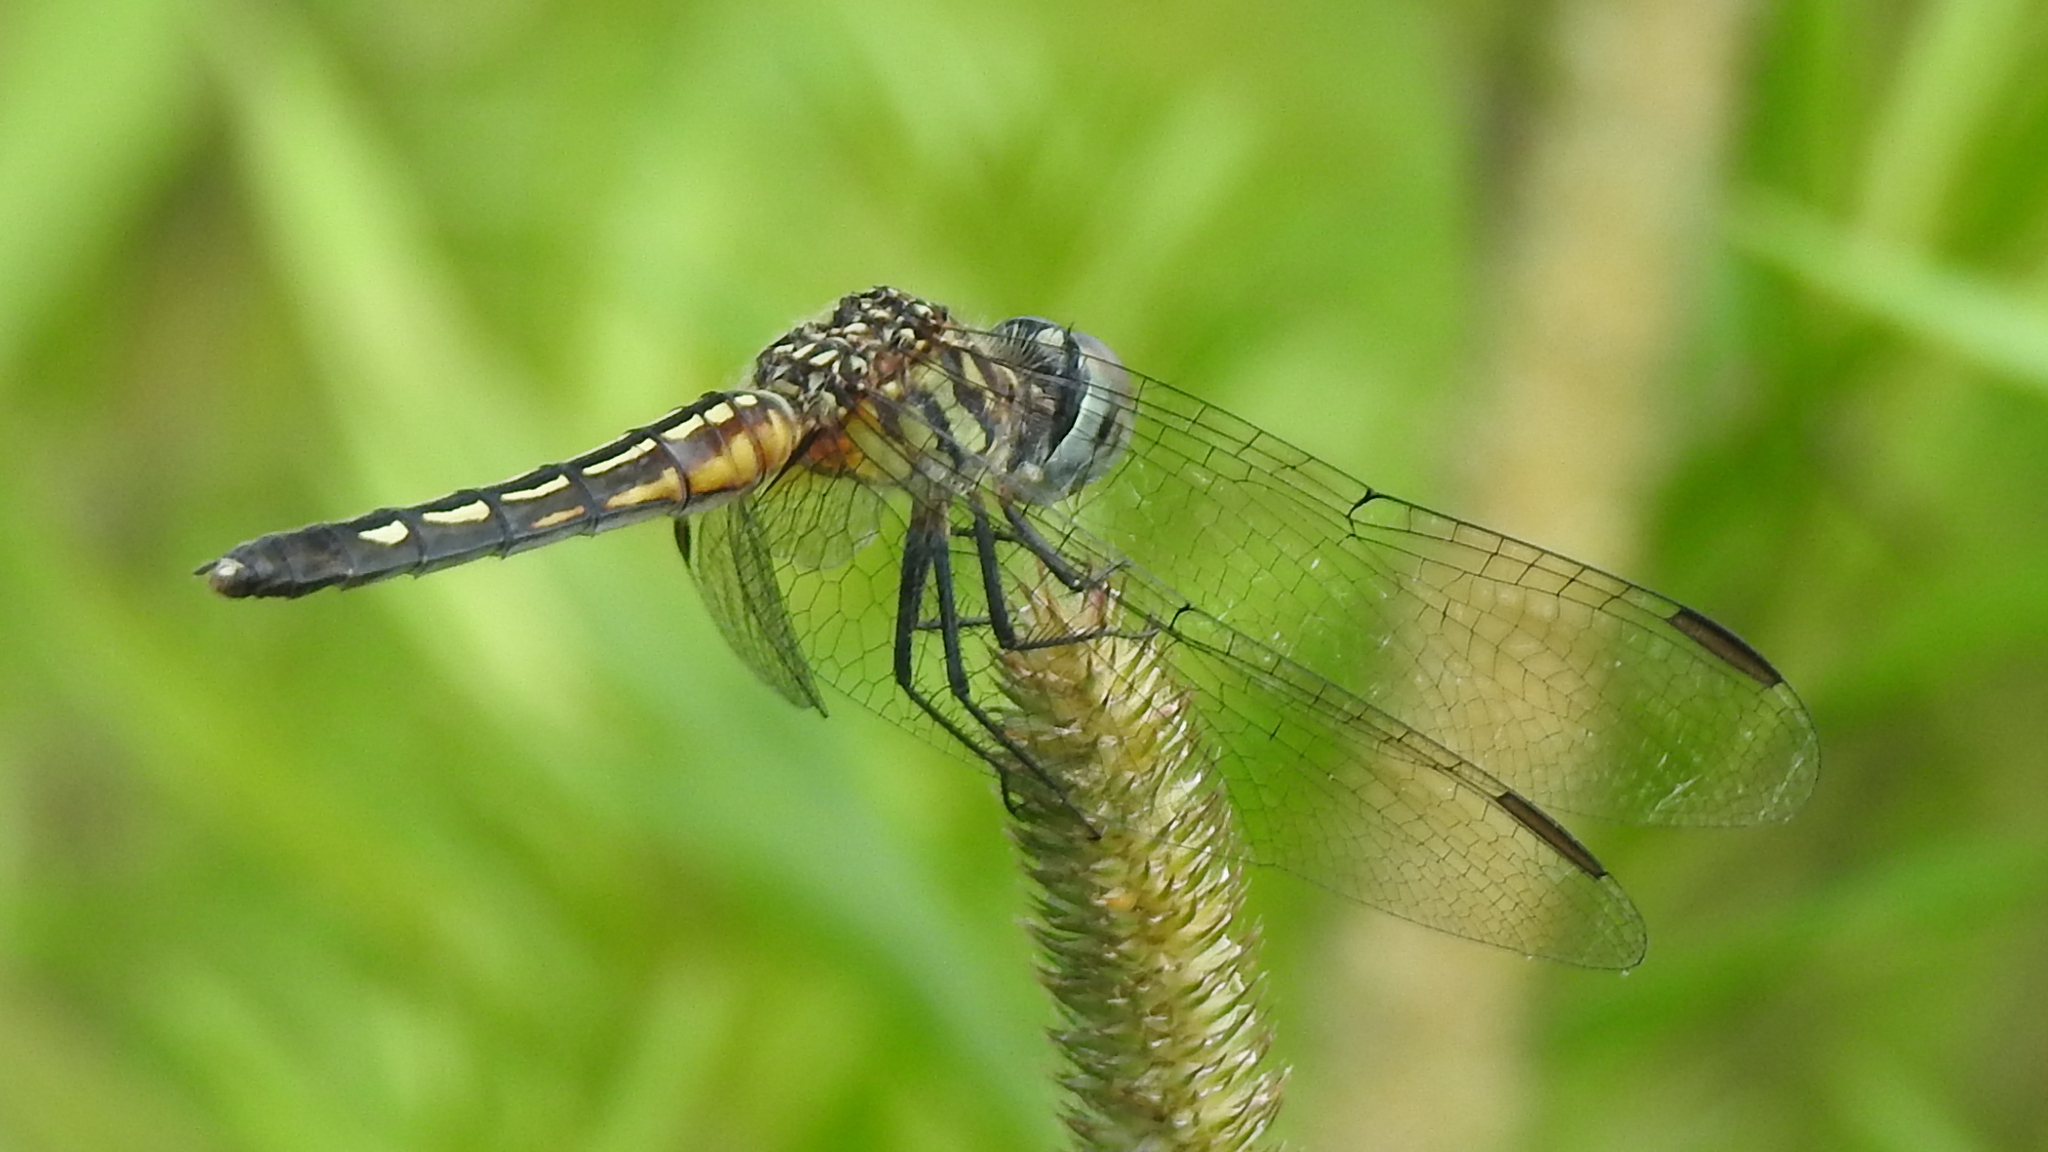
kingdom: Animalia
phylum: Arthropoda
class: Insecta
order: Odonata
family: Libellulidae
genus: Pachydiplax
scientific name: Pachydiplax longipennis
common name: Blue dasher
